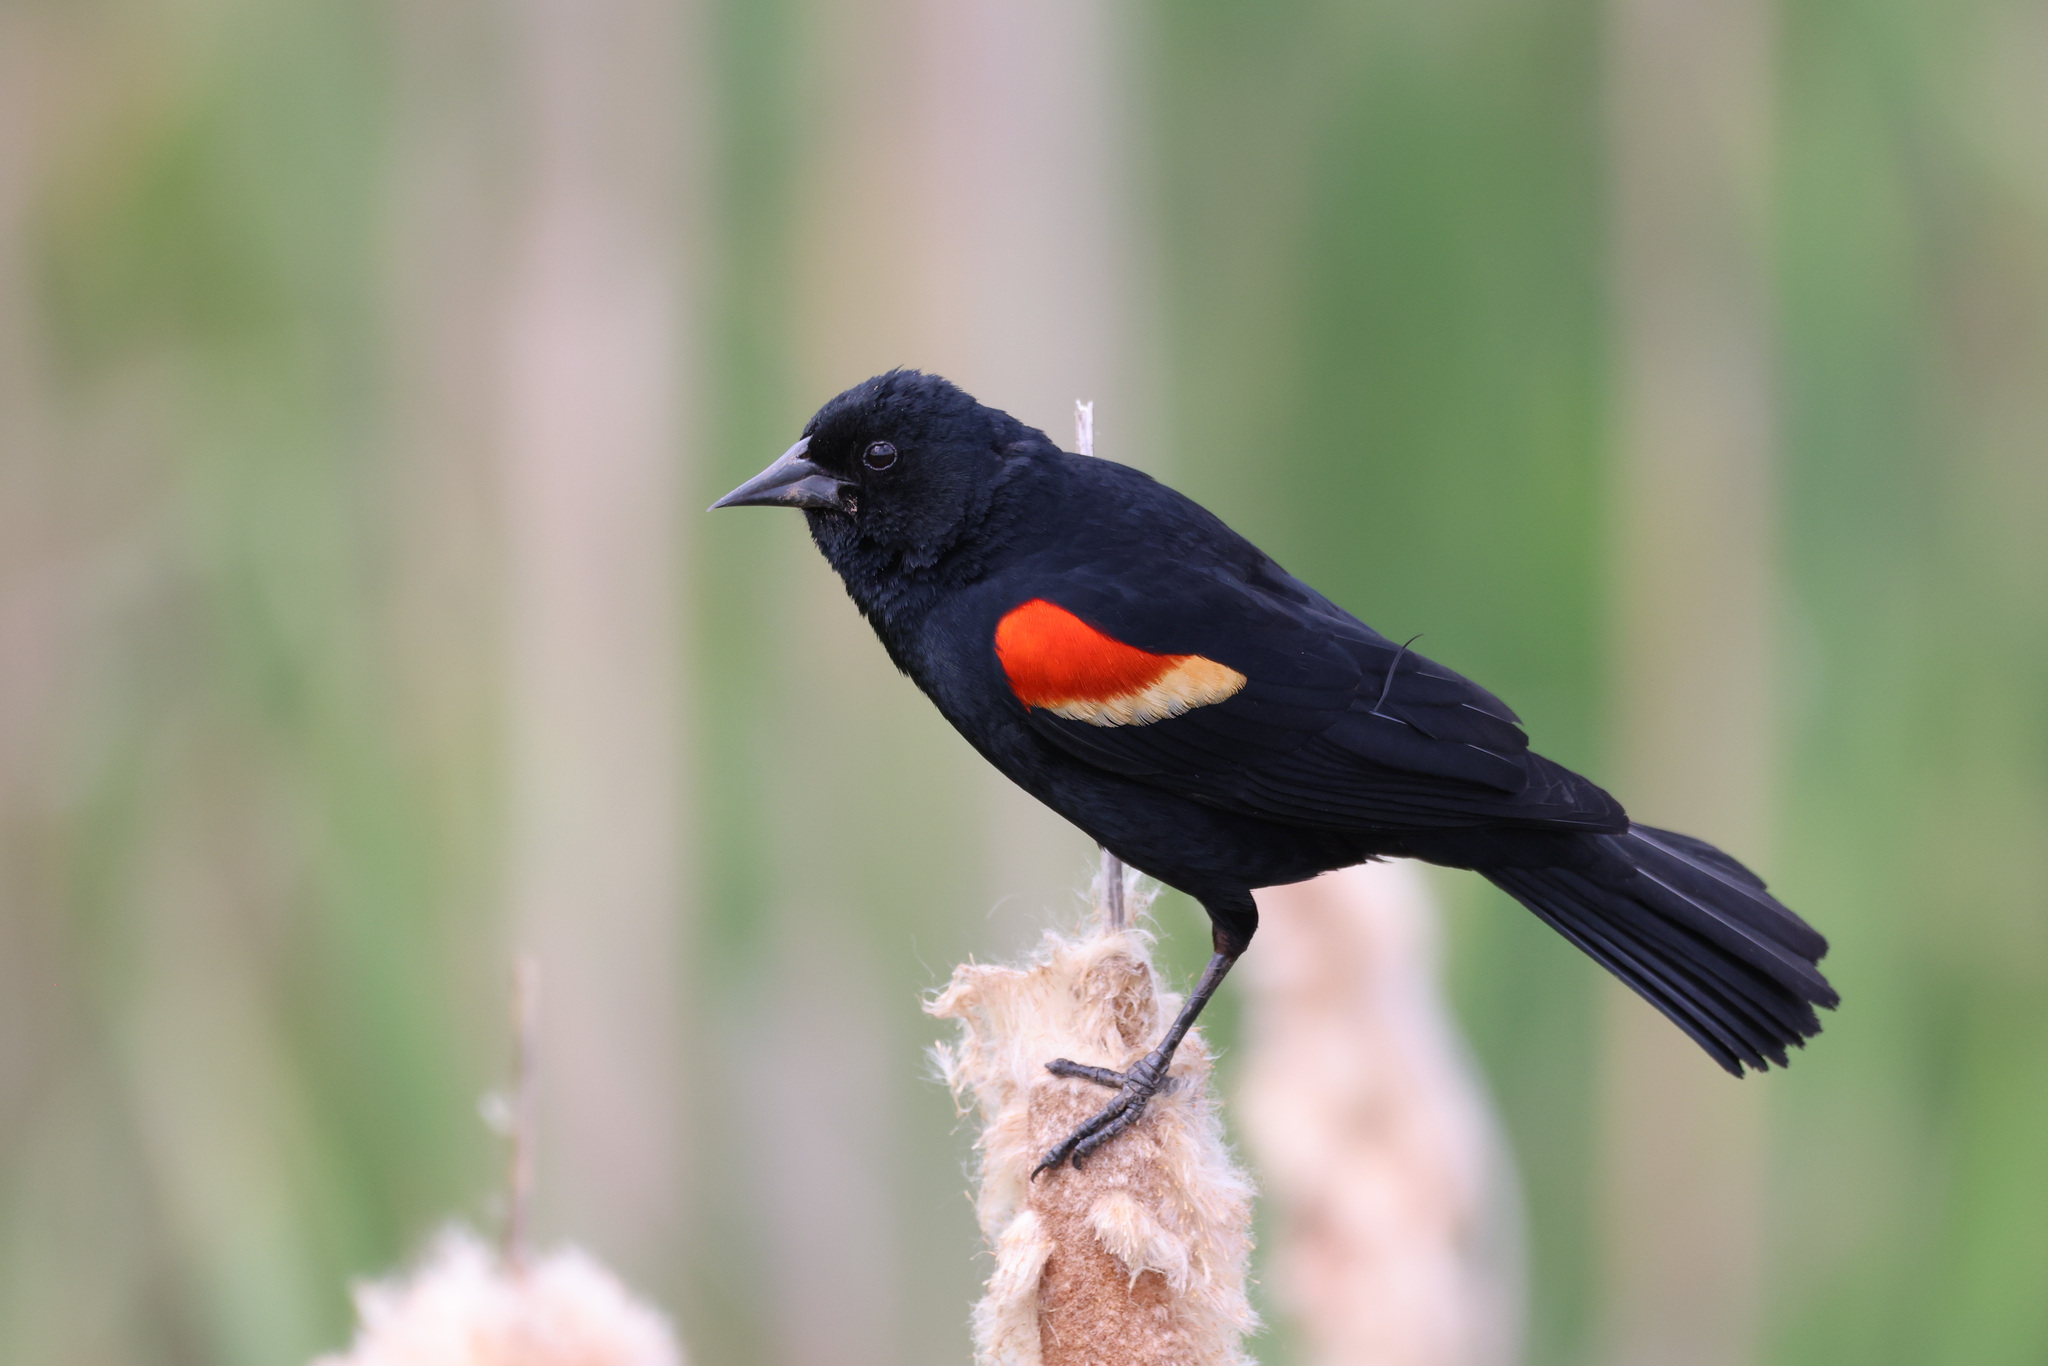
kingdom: Animalia
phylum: Chordata
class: Aves
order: Passeriformes
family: Icteridae
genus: Agelaius
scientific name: Agelaius phoeniceus
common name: Red-winged blackbird
